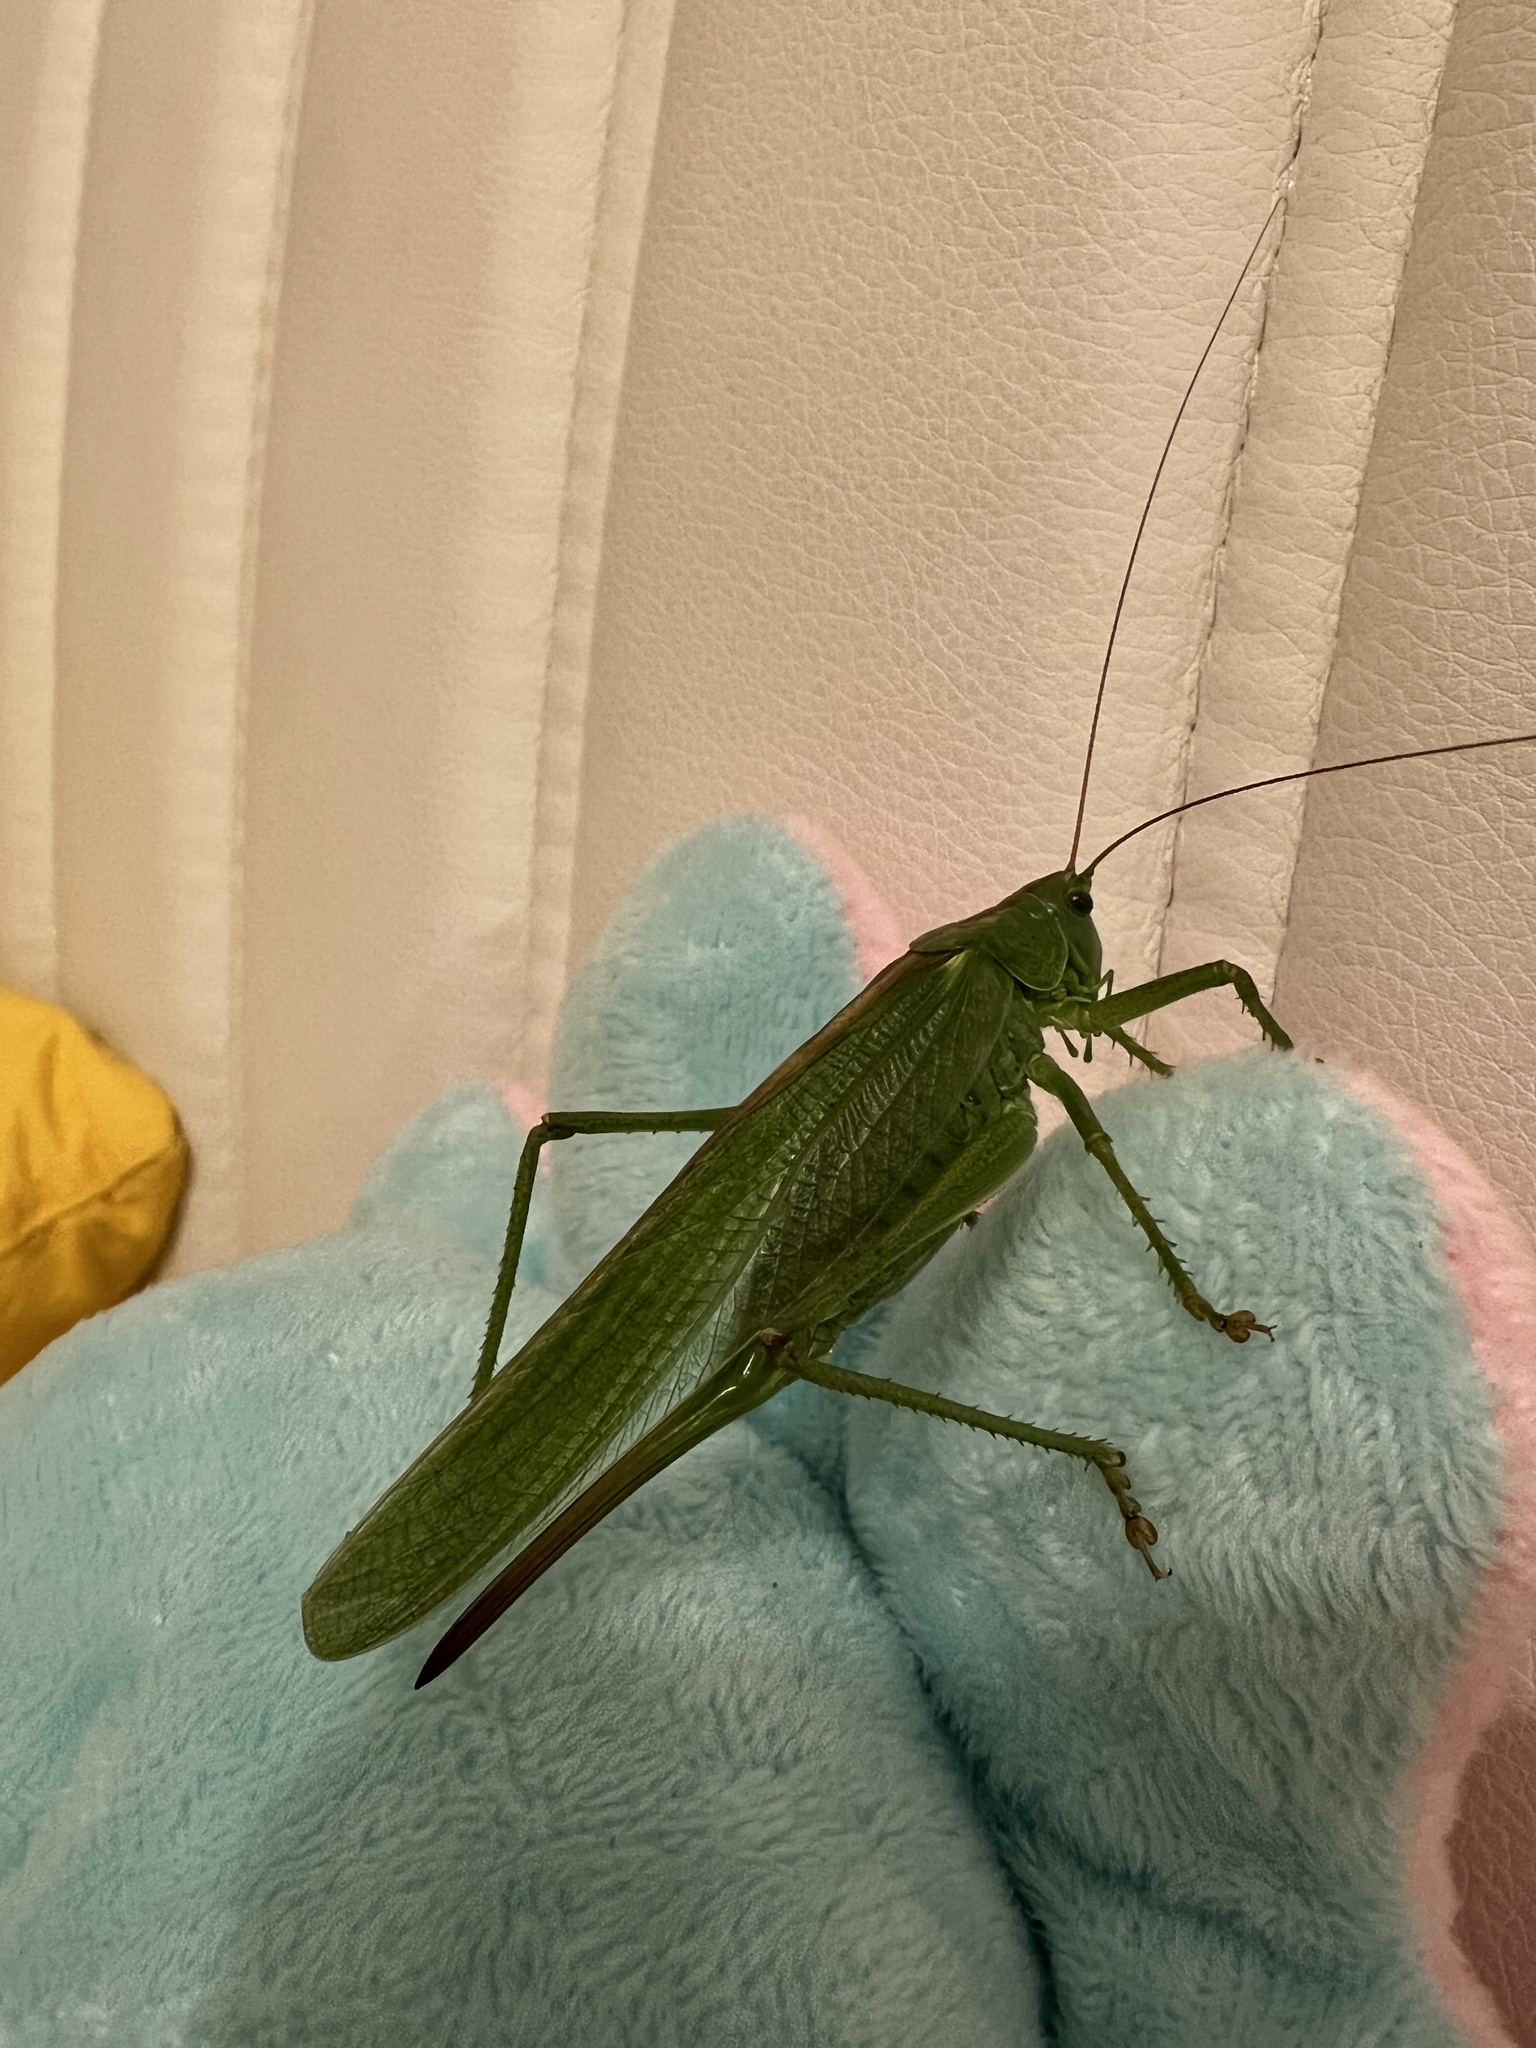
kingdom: Animalia
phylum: Arthropoda
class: Insecta
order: Orthoptera
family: Tettigoniidae
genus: Tettigonia
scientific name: Tettigonia viridissima
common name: Great green bush-cricket
